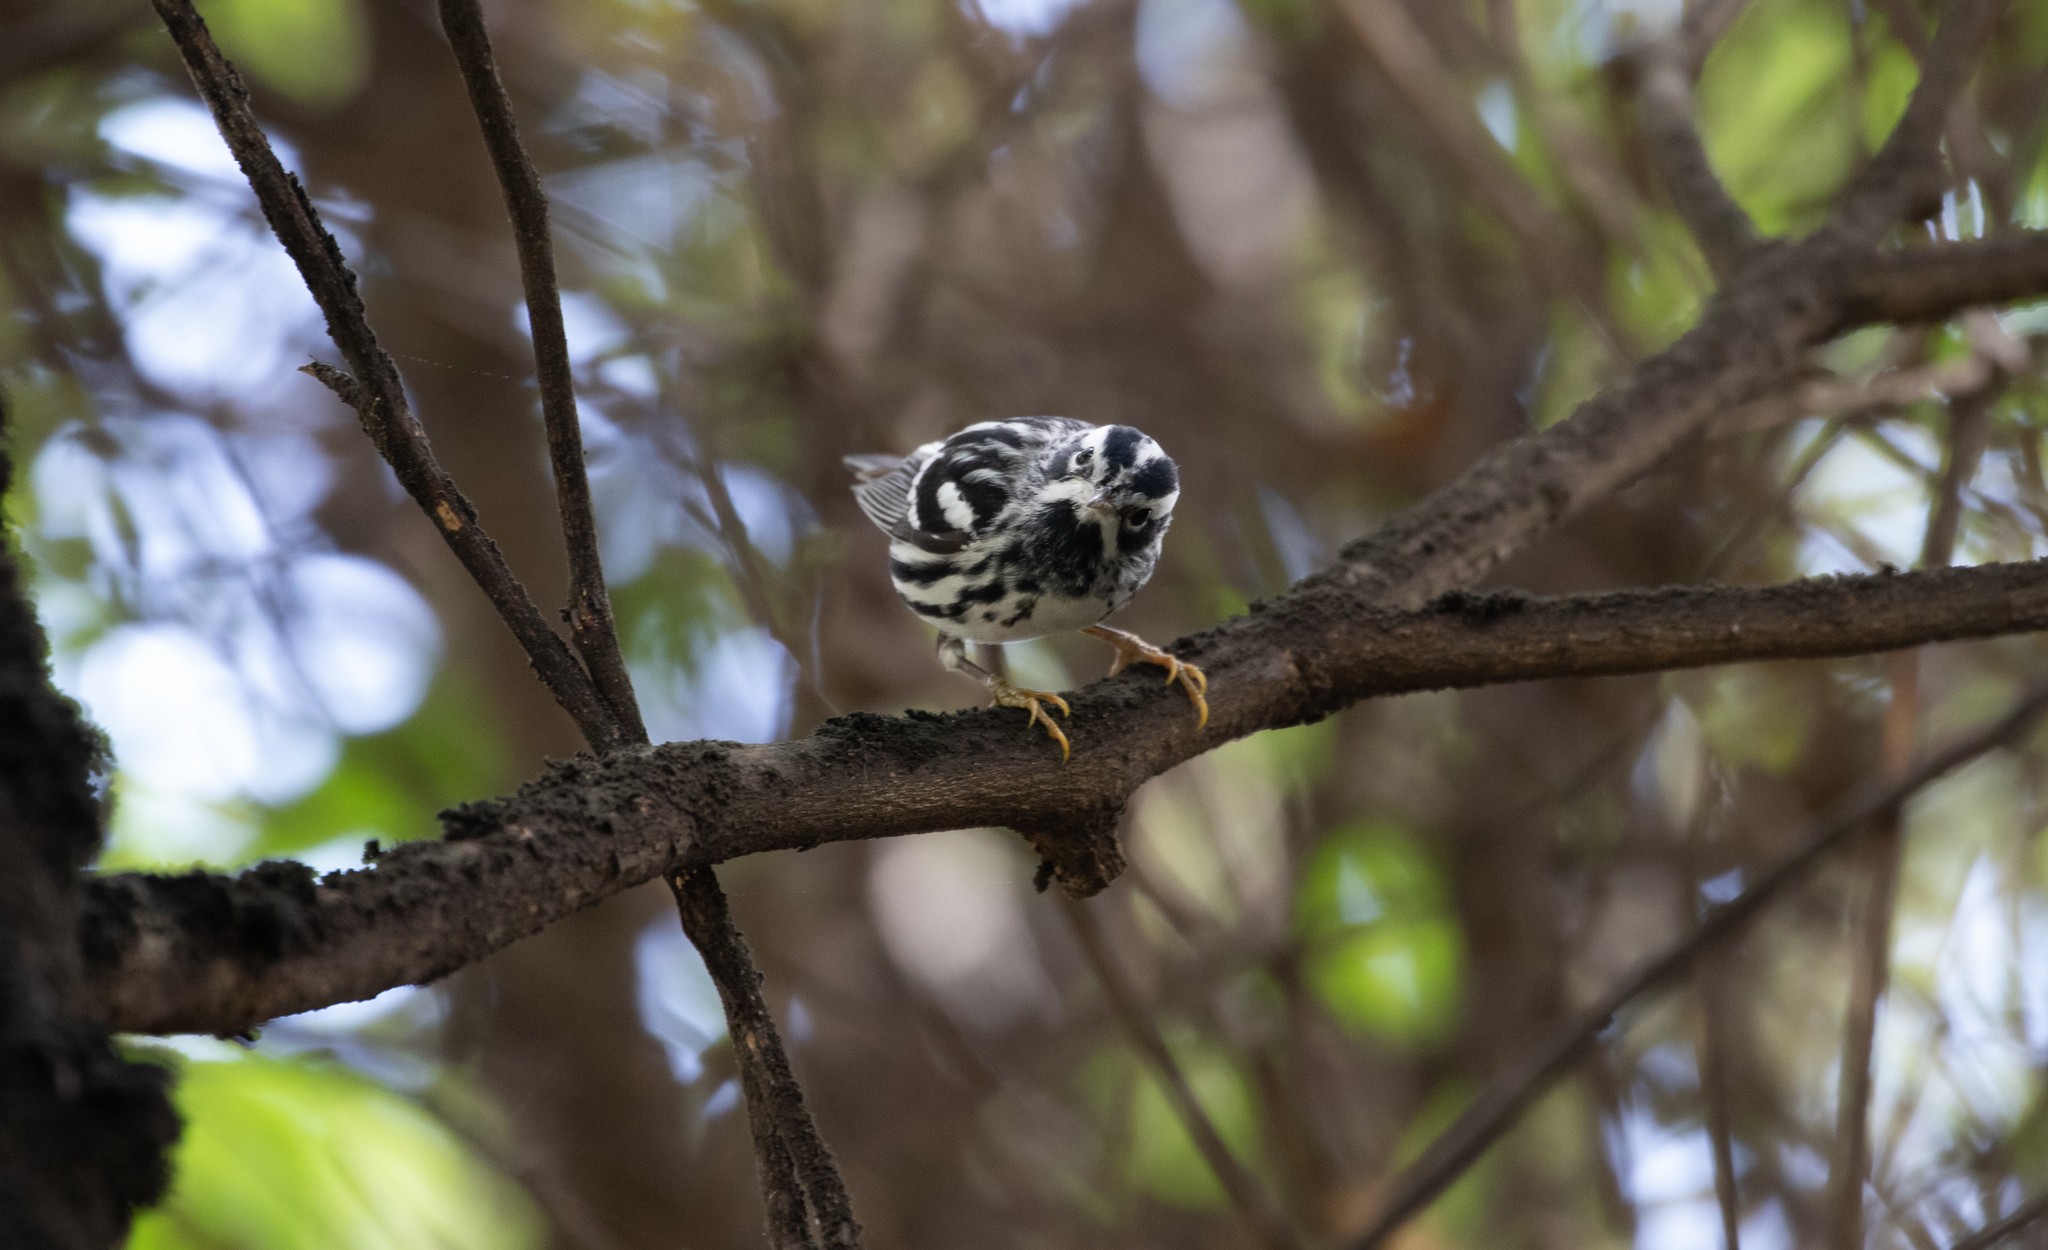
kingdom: Animalia
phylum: Chordata
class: Aves
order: Passeriformes
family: Parulidae
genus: Mniotilta
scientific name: Mniotilta varia
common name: Black-and-white warbler
